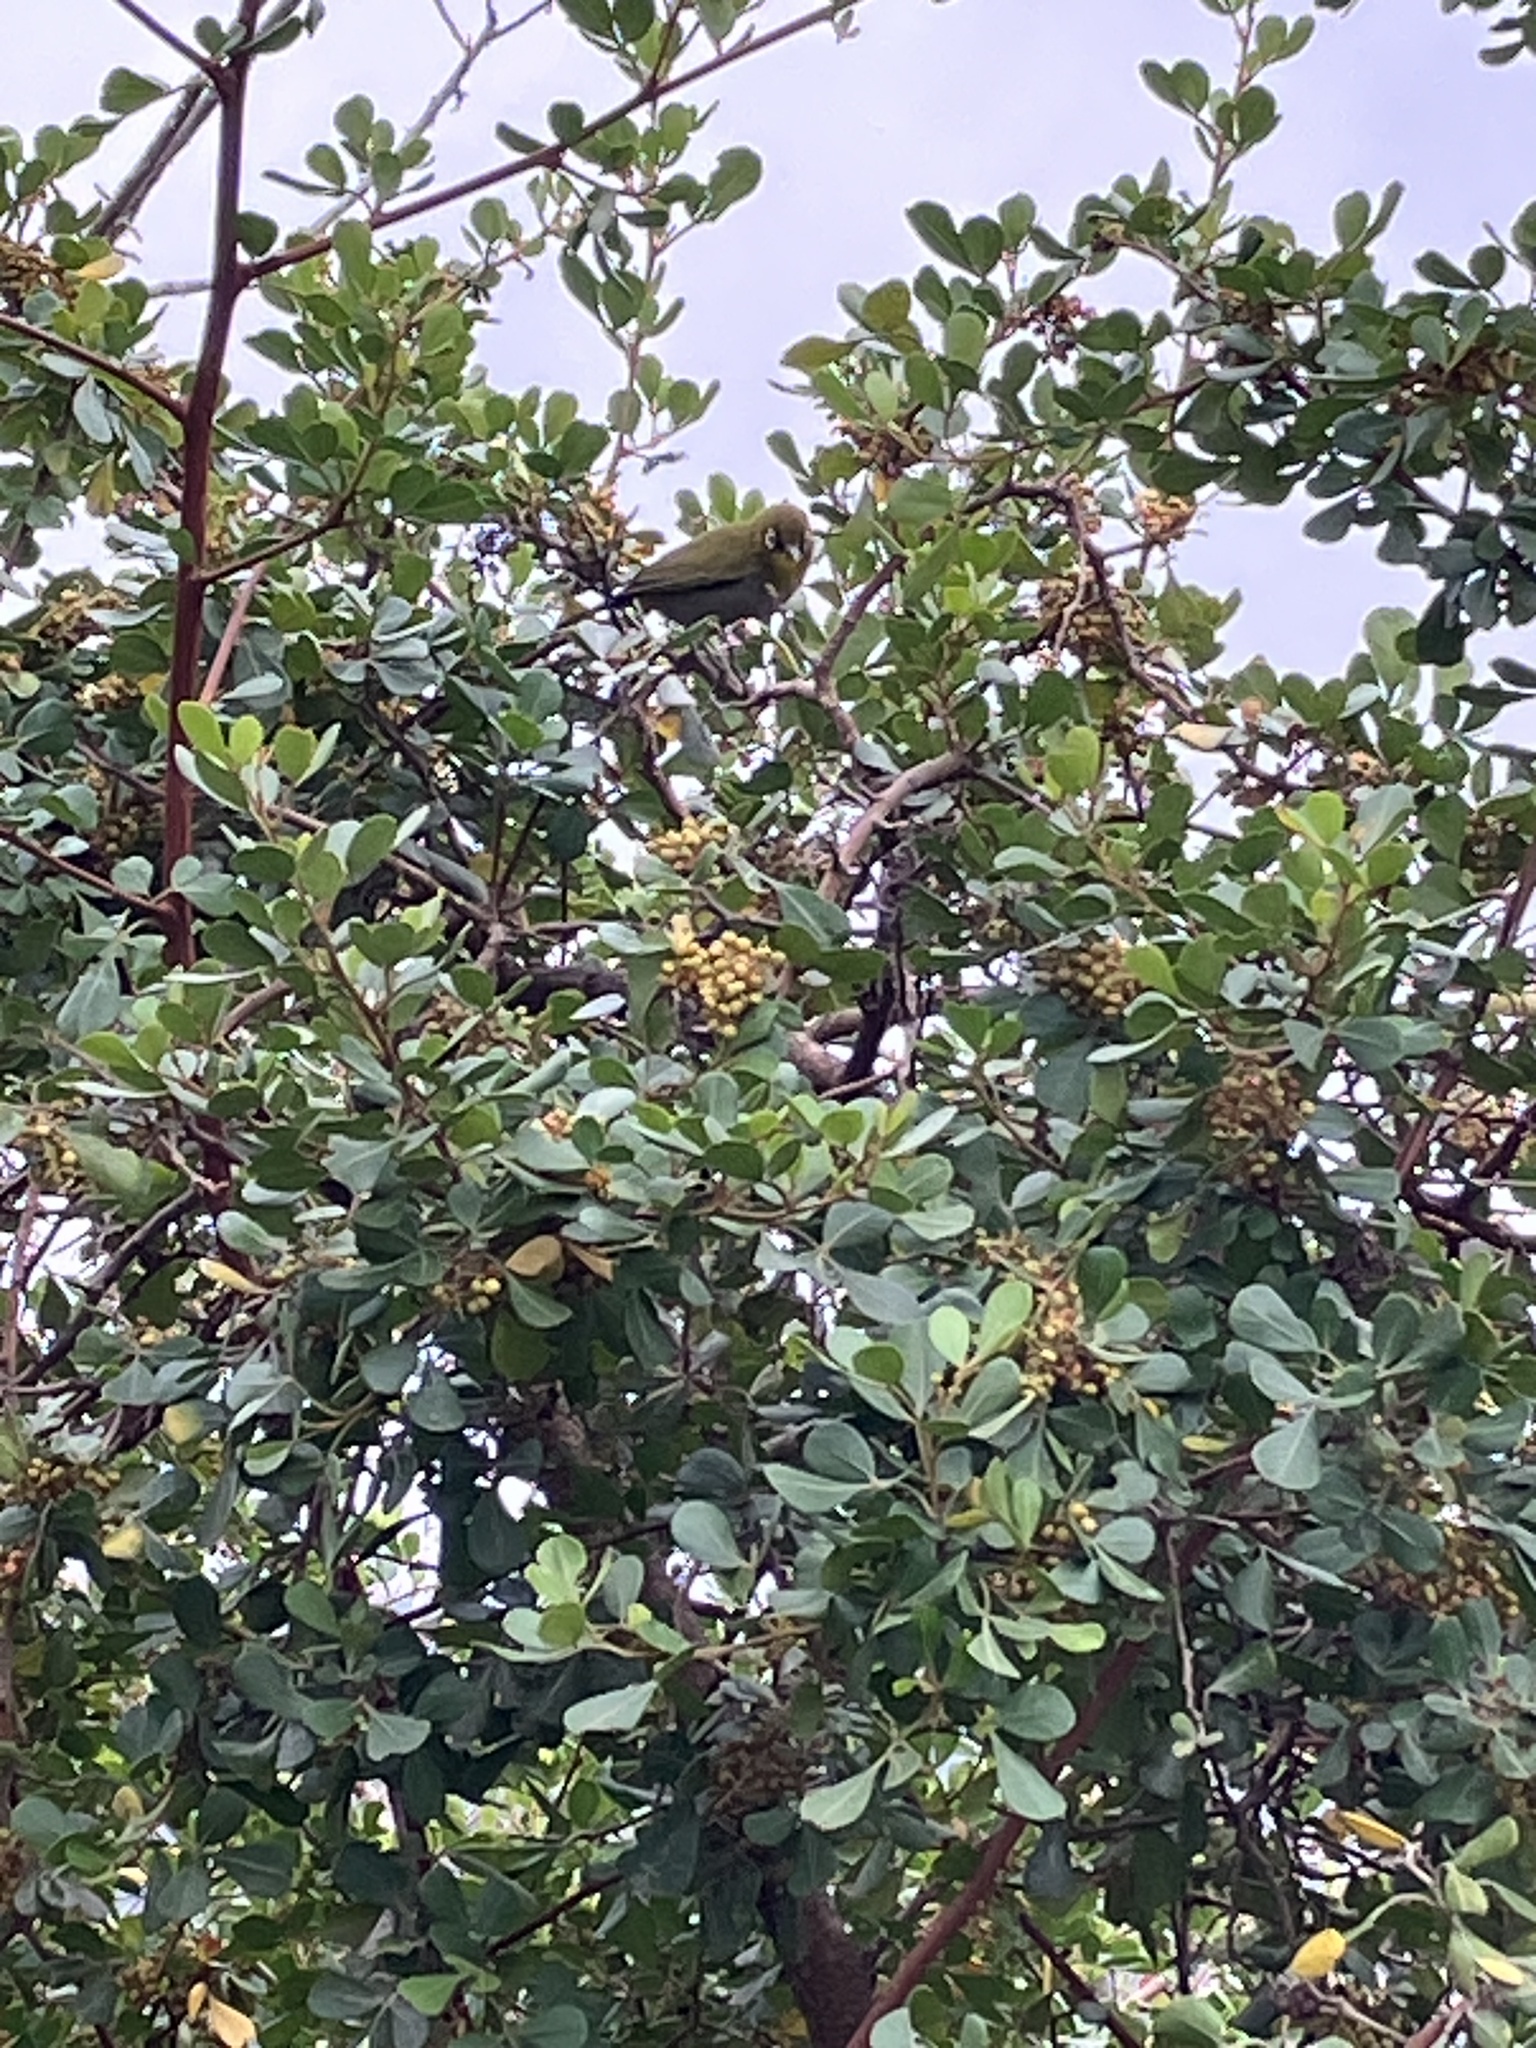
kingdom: Animalia
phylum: Chordata
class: Aves
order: Passeriformes
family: Zosteropidae
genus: Zosterops
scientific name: Zosterops virens
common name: Cape white-eye
